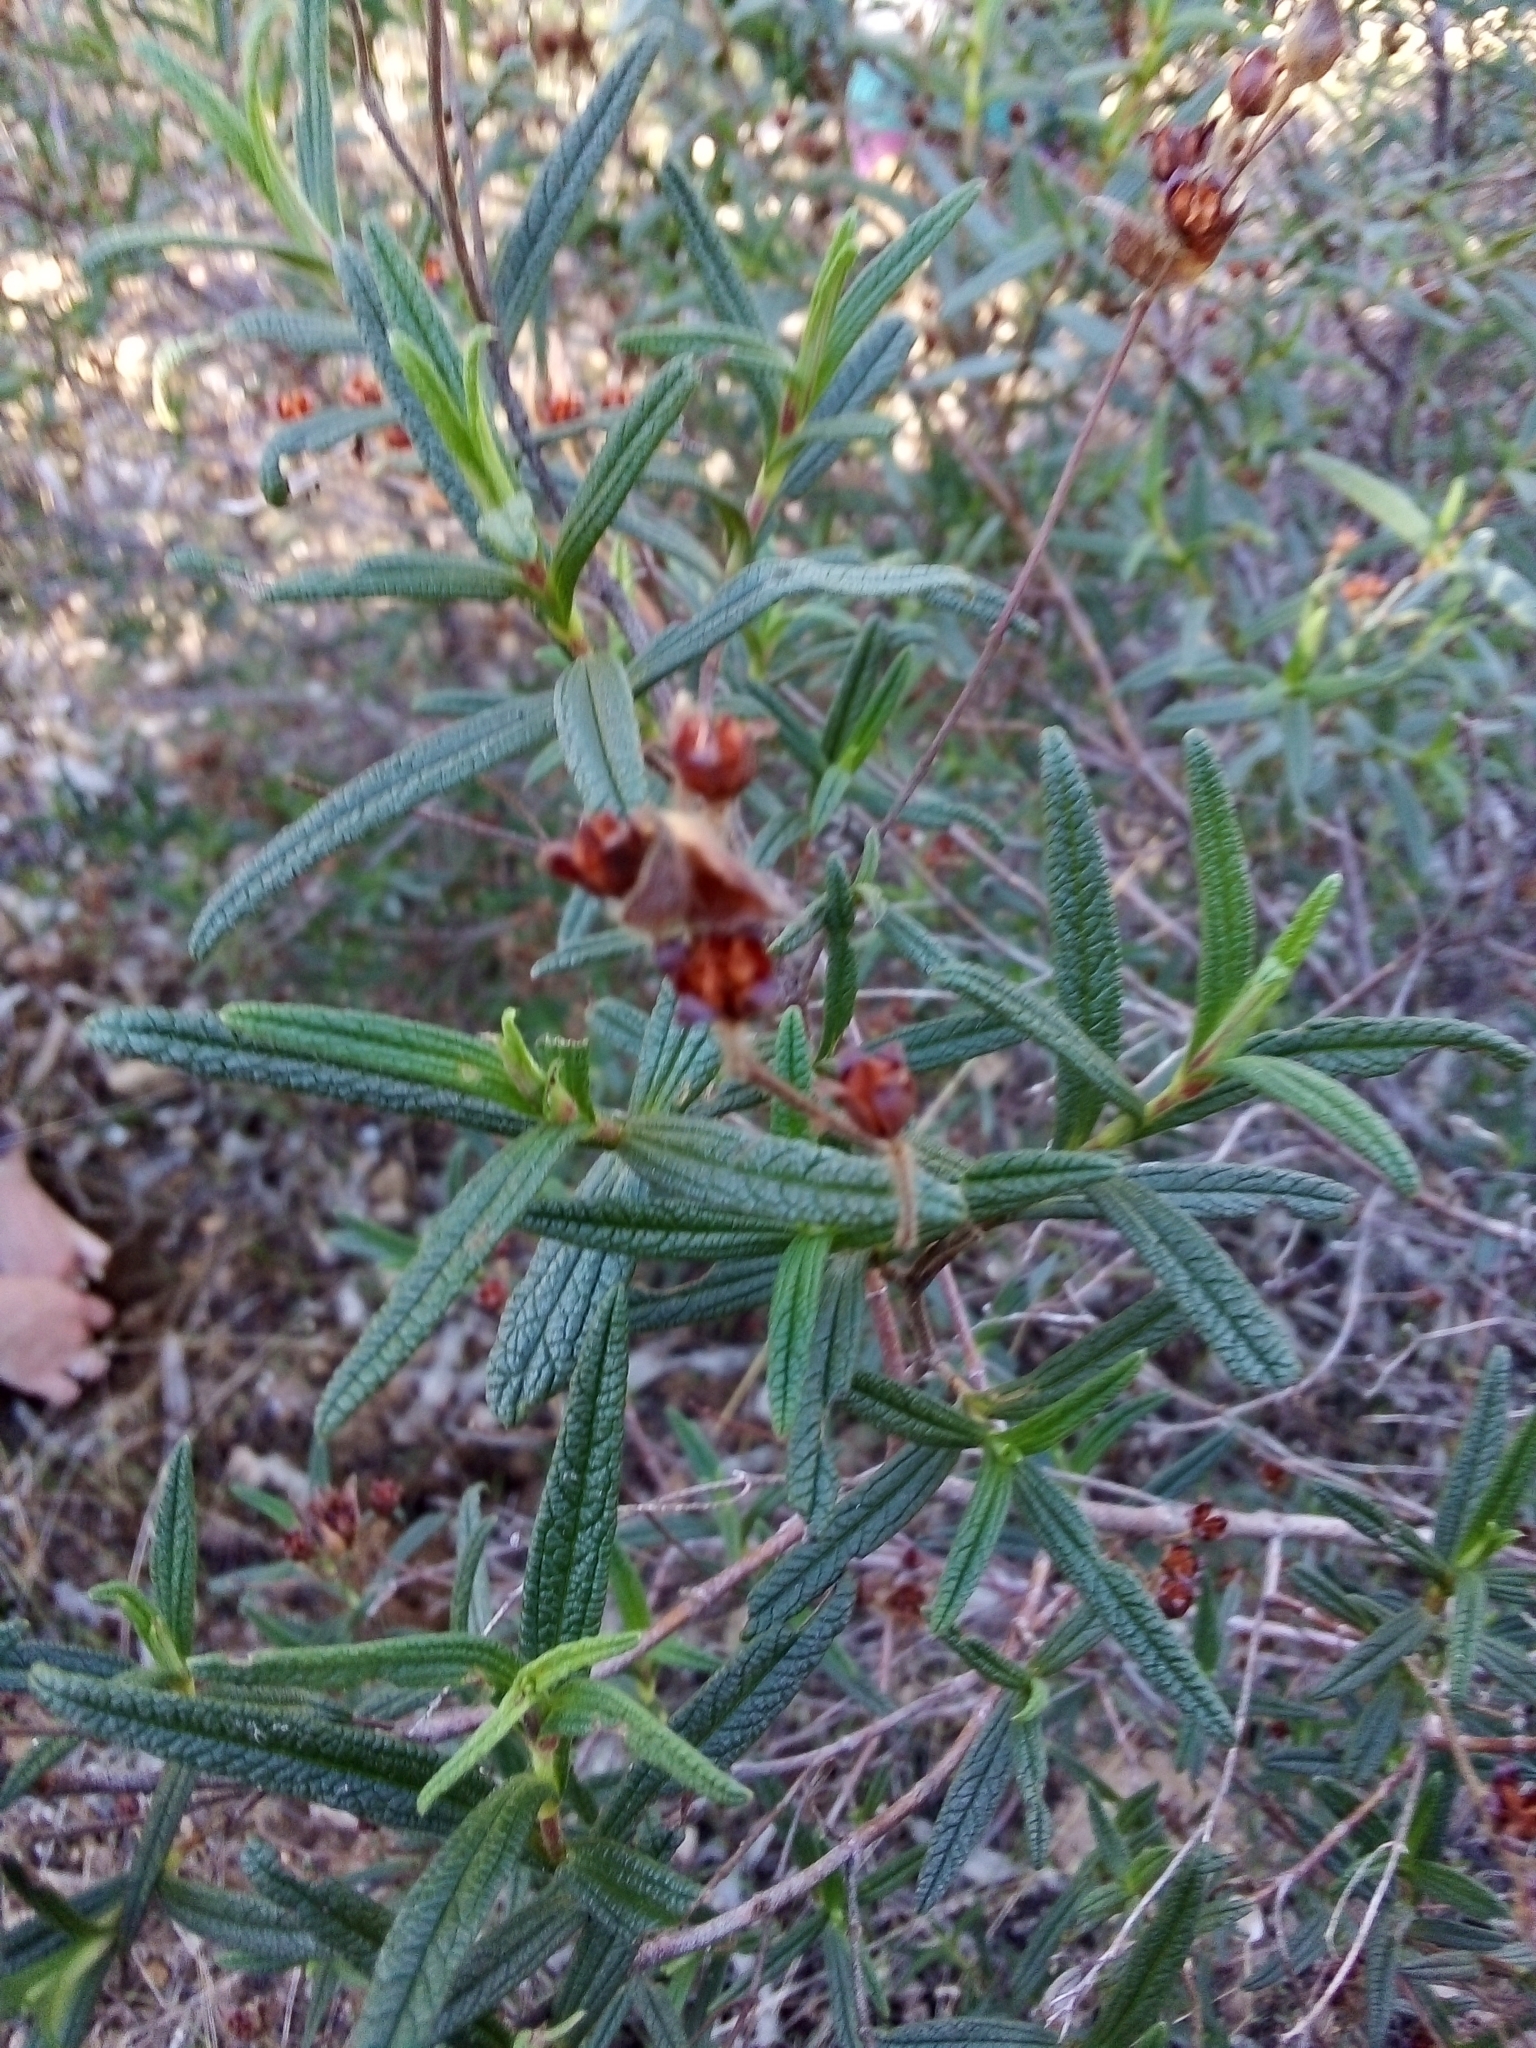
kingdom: Plantae
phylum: Tracheophyta
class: Magnoliopsida
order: Malvales
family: Cistaceae
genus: Cistus
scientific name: Cistus monspeliensis
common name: Montpelier cistus
